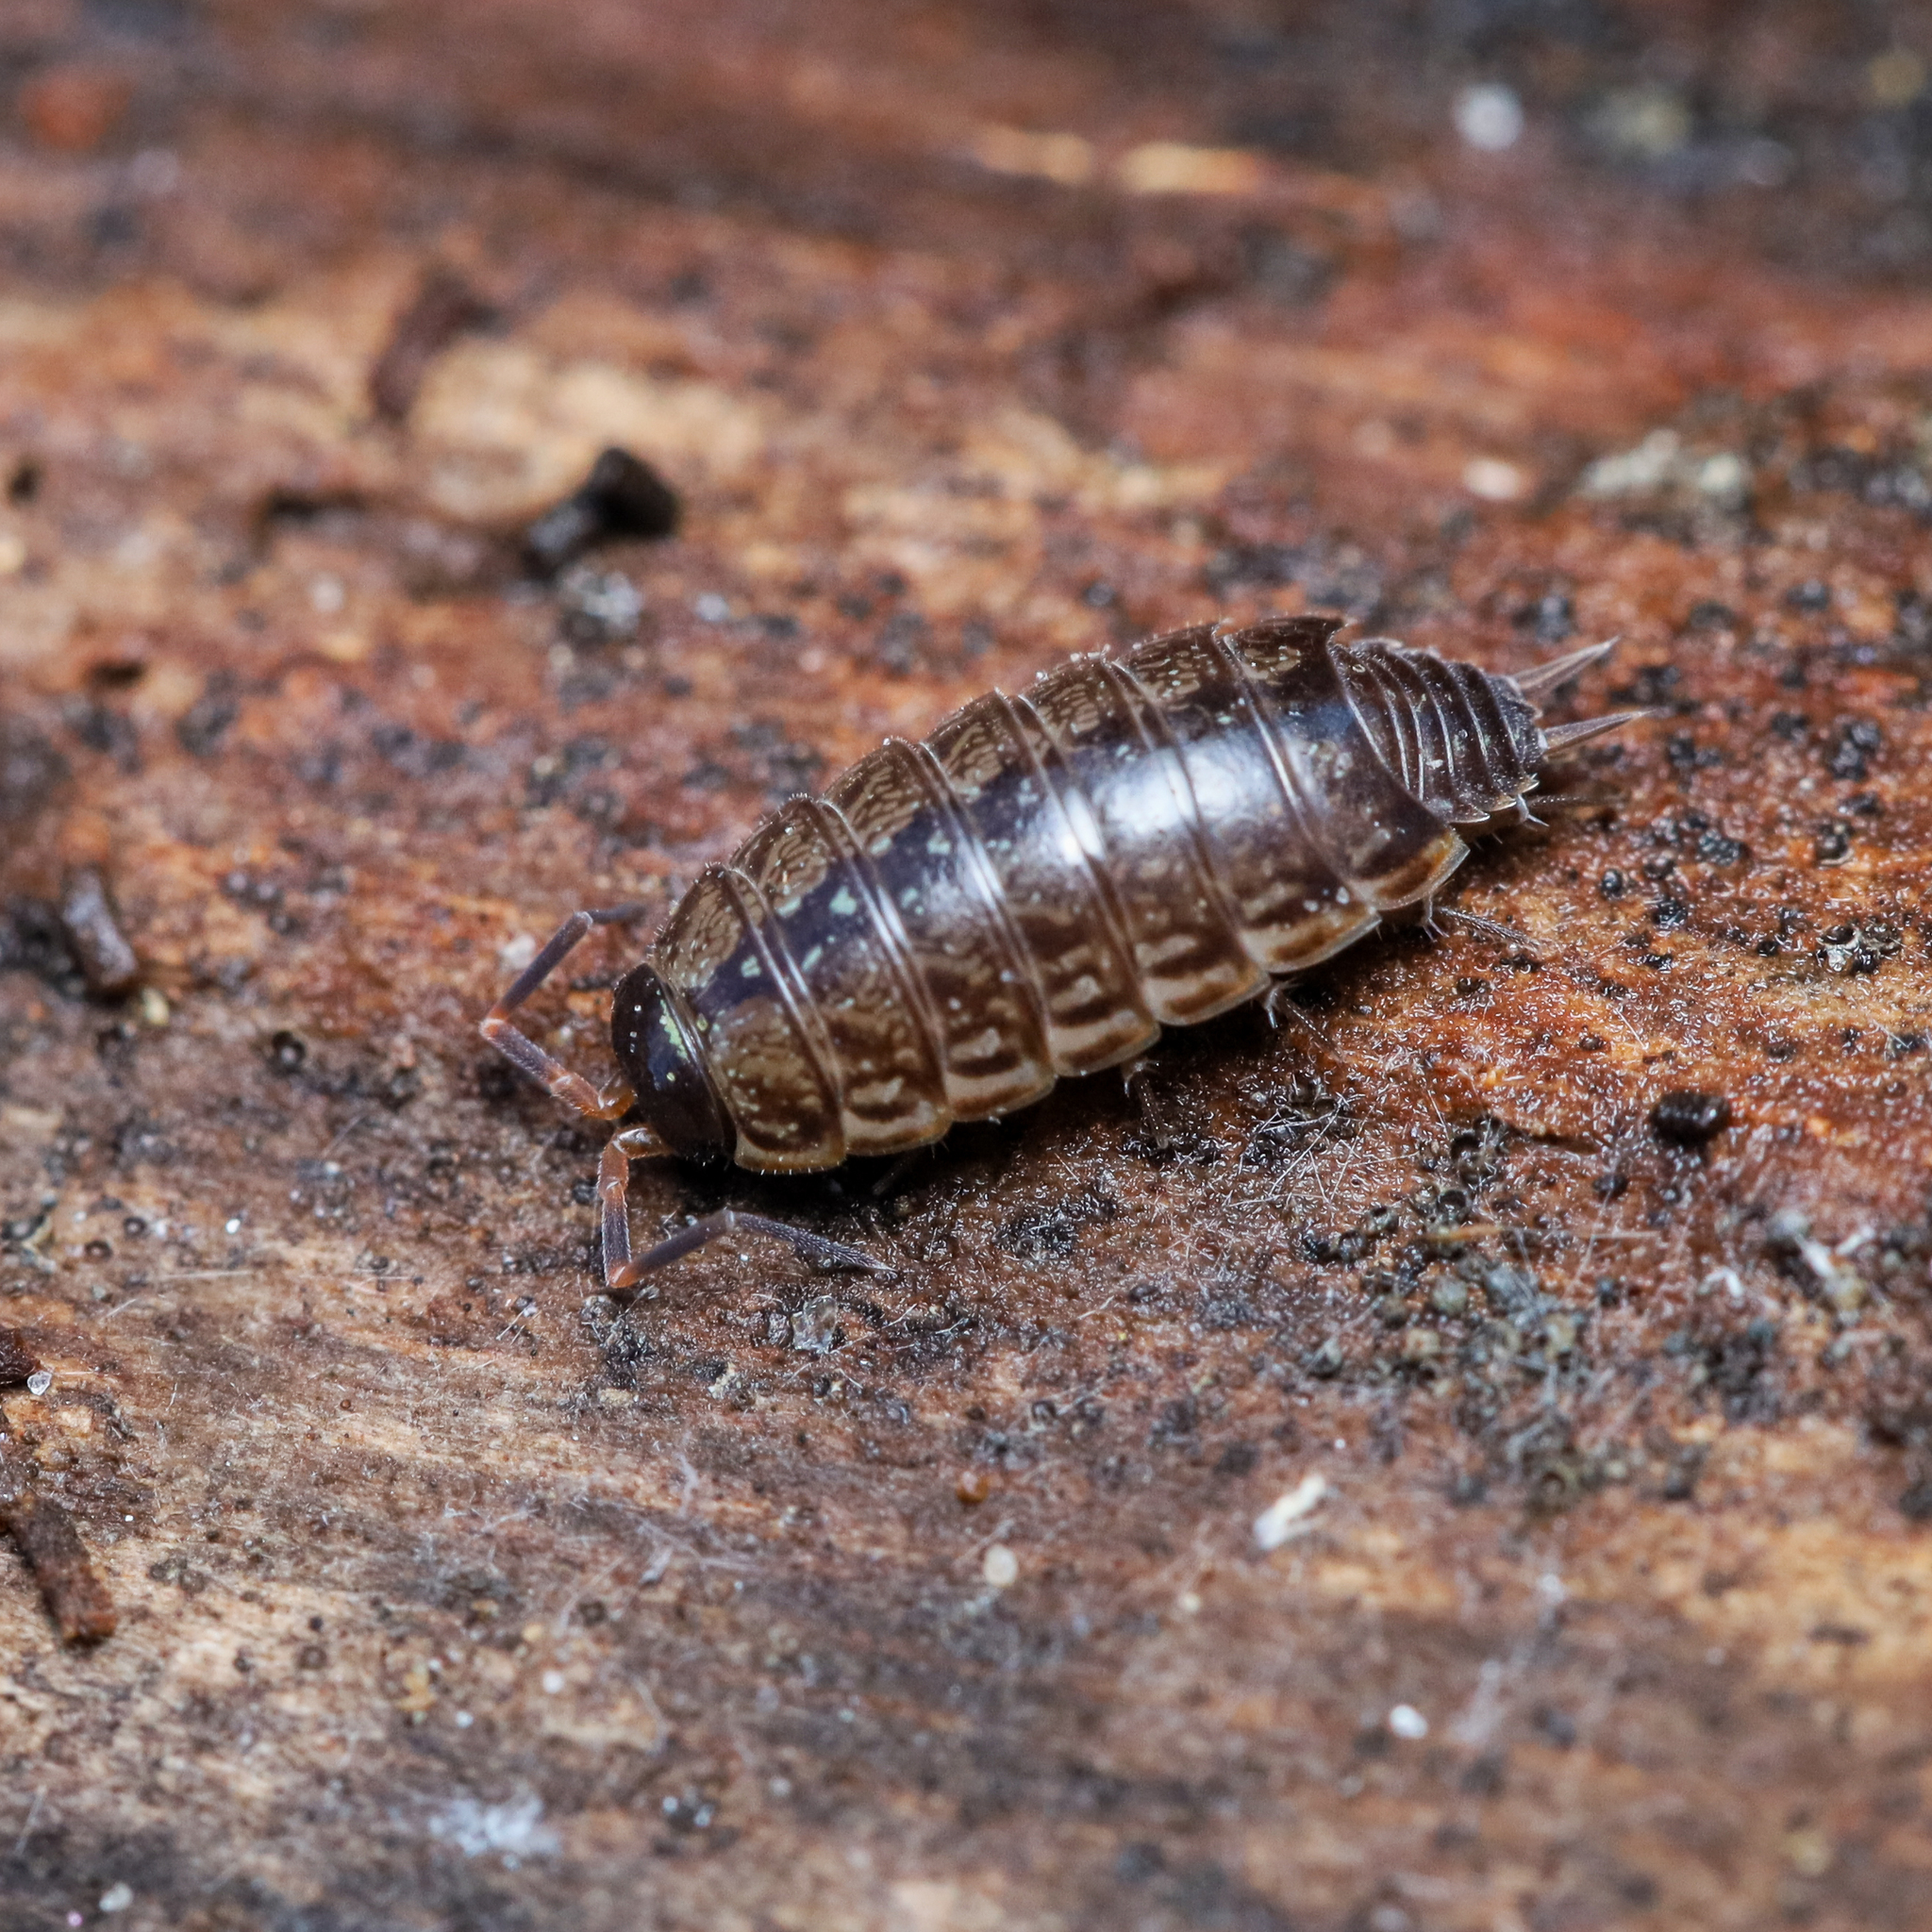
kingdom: Animalia
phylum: Arthropoda
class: Malacostraca
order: Isopoda
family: Philosciidae
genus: Philoscia
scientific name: Philoscia muscorum
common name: Common striped woodlouse
